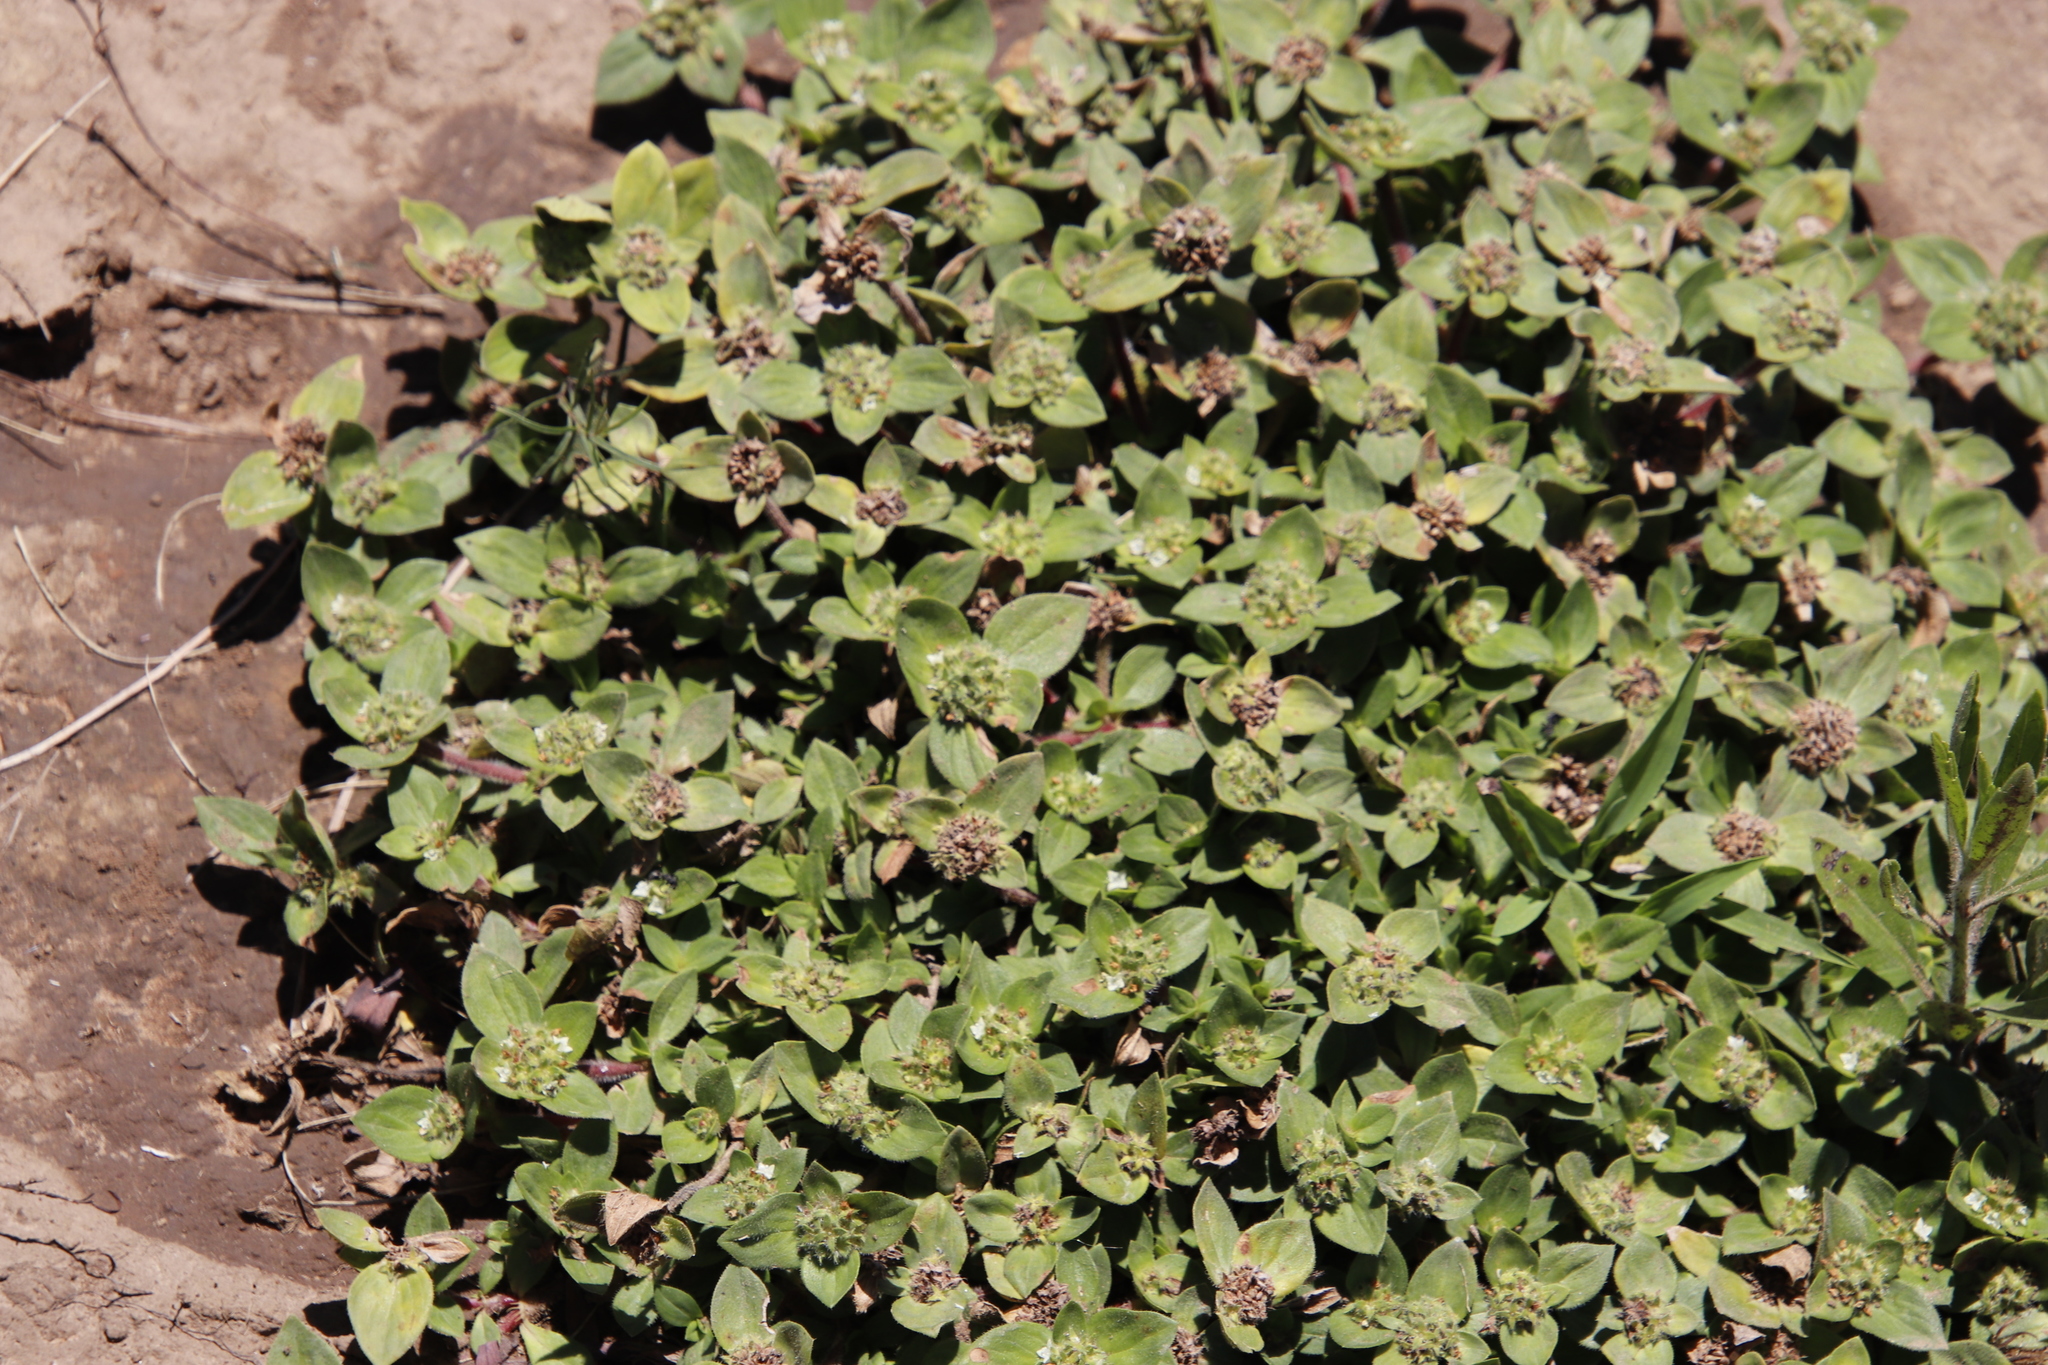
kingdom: Plantae
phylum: Tracheophyta
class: Magnoliopsida
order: Gentianales
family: Rubiaceae
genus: Richardia
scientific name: Richardia brasiliensis
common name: Tropical mexican clover
